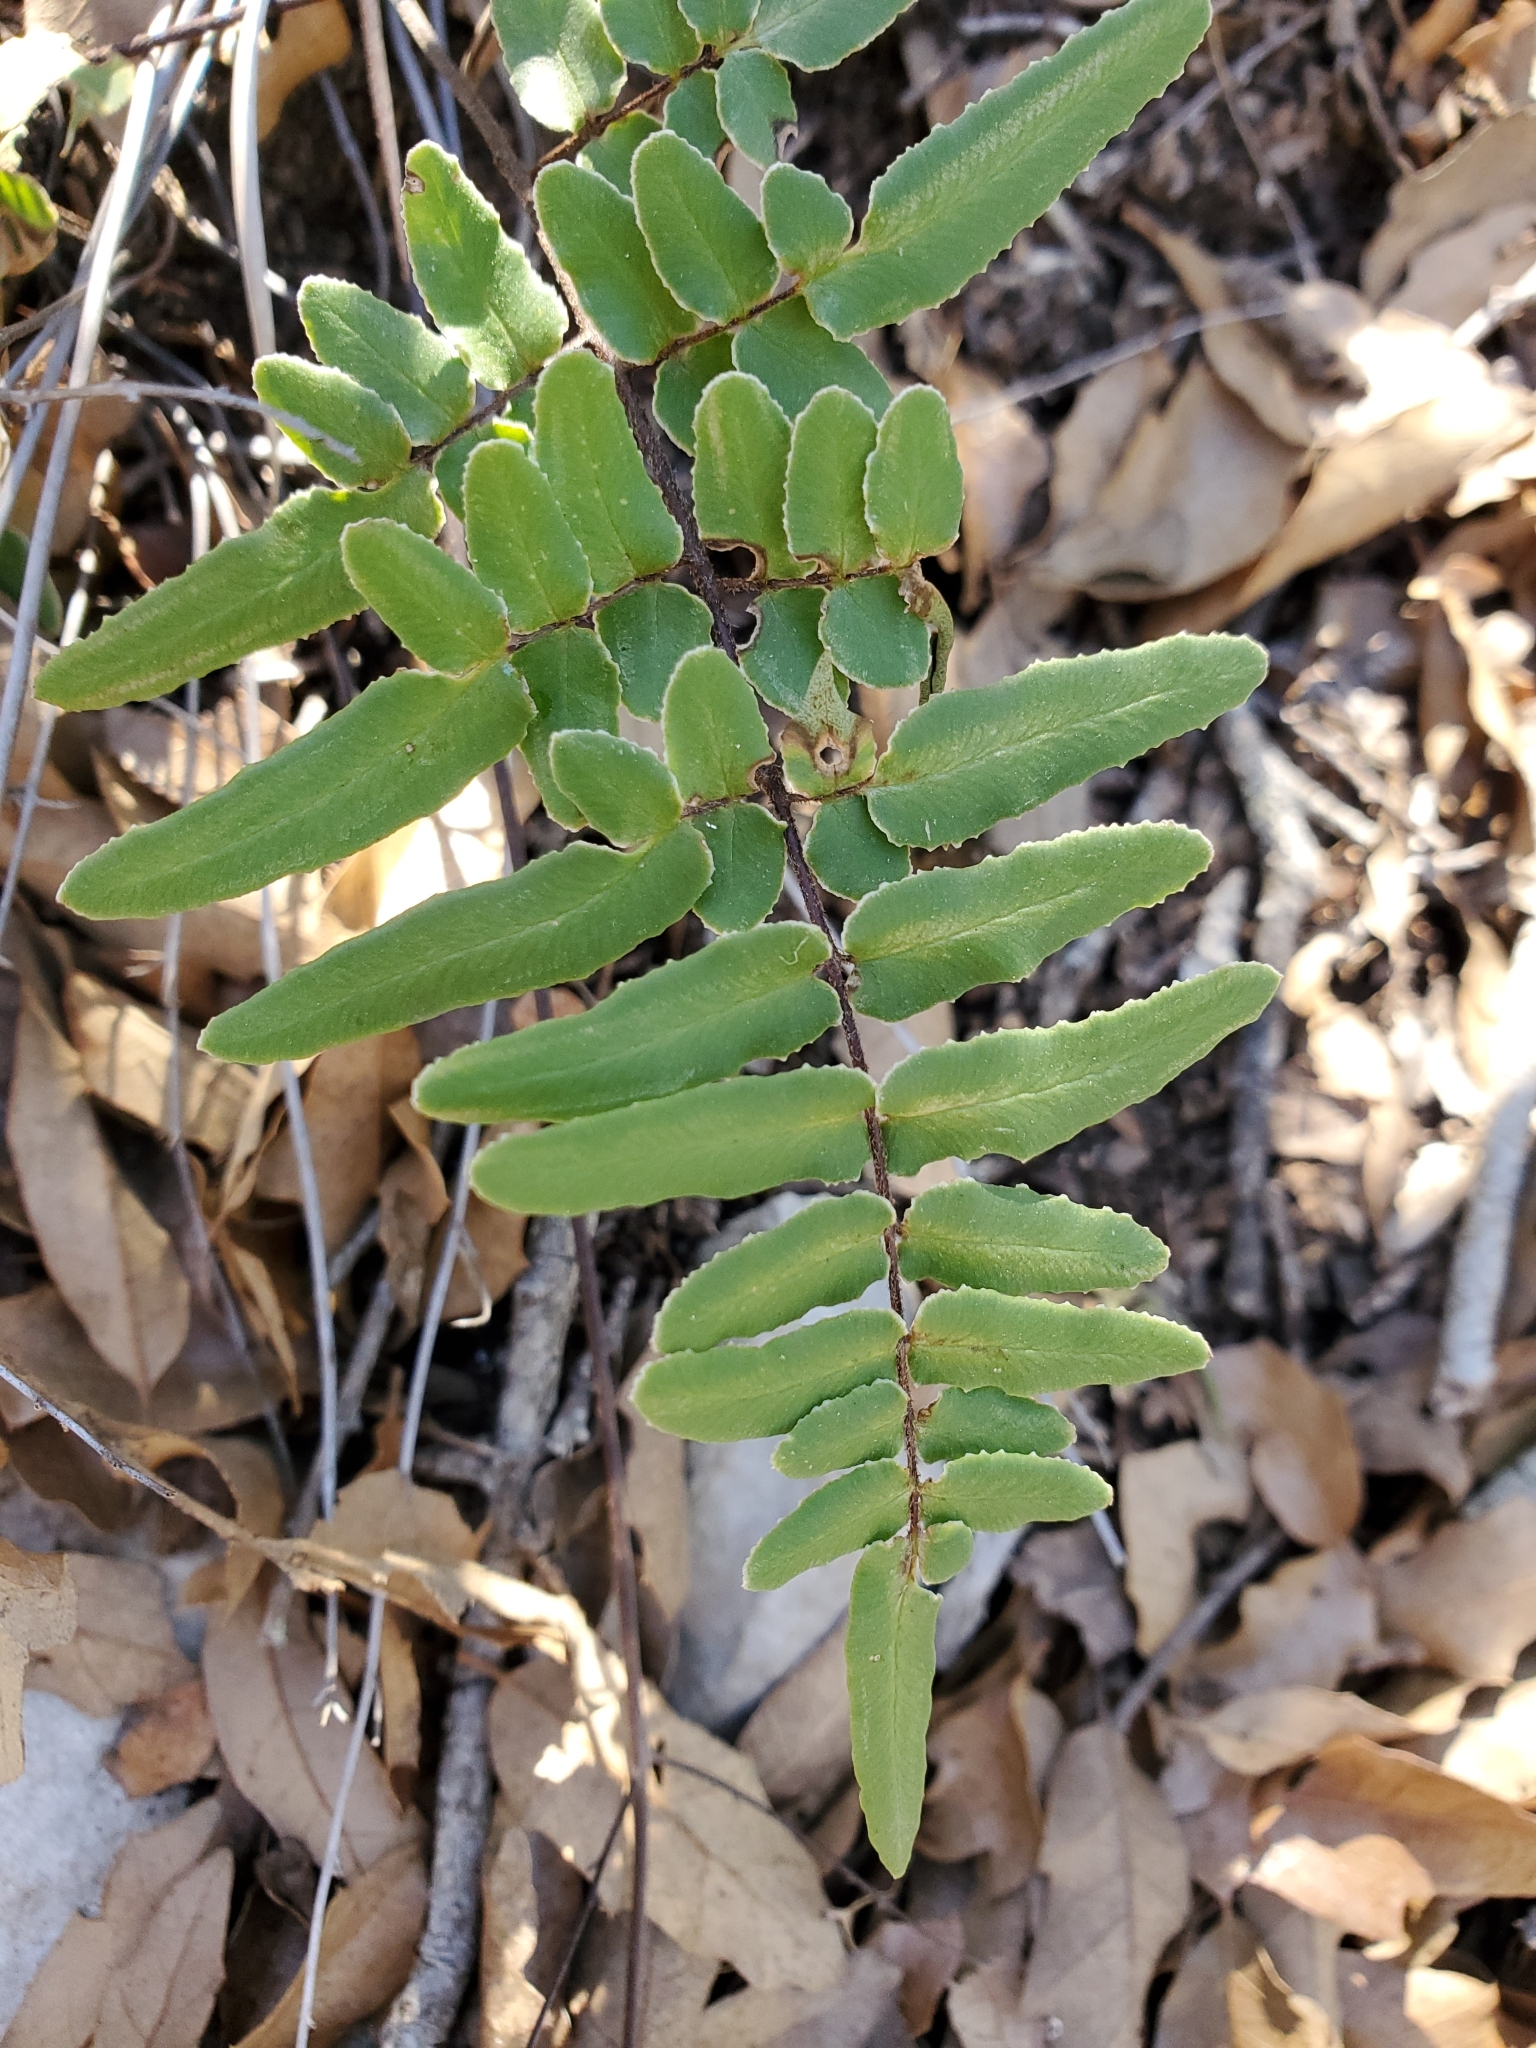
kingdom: Plantae
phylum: Tracheophyta
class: Polypodiopsida
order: Polypodiales
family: Pteridaceae
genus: Pellaea
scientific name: Pellaea atropurpurea
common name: Hairy cliffbrake
